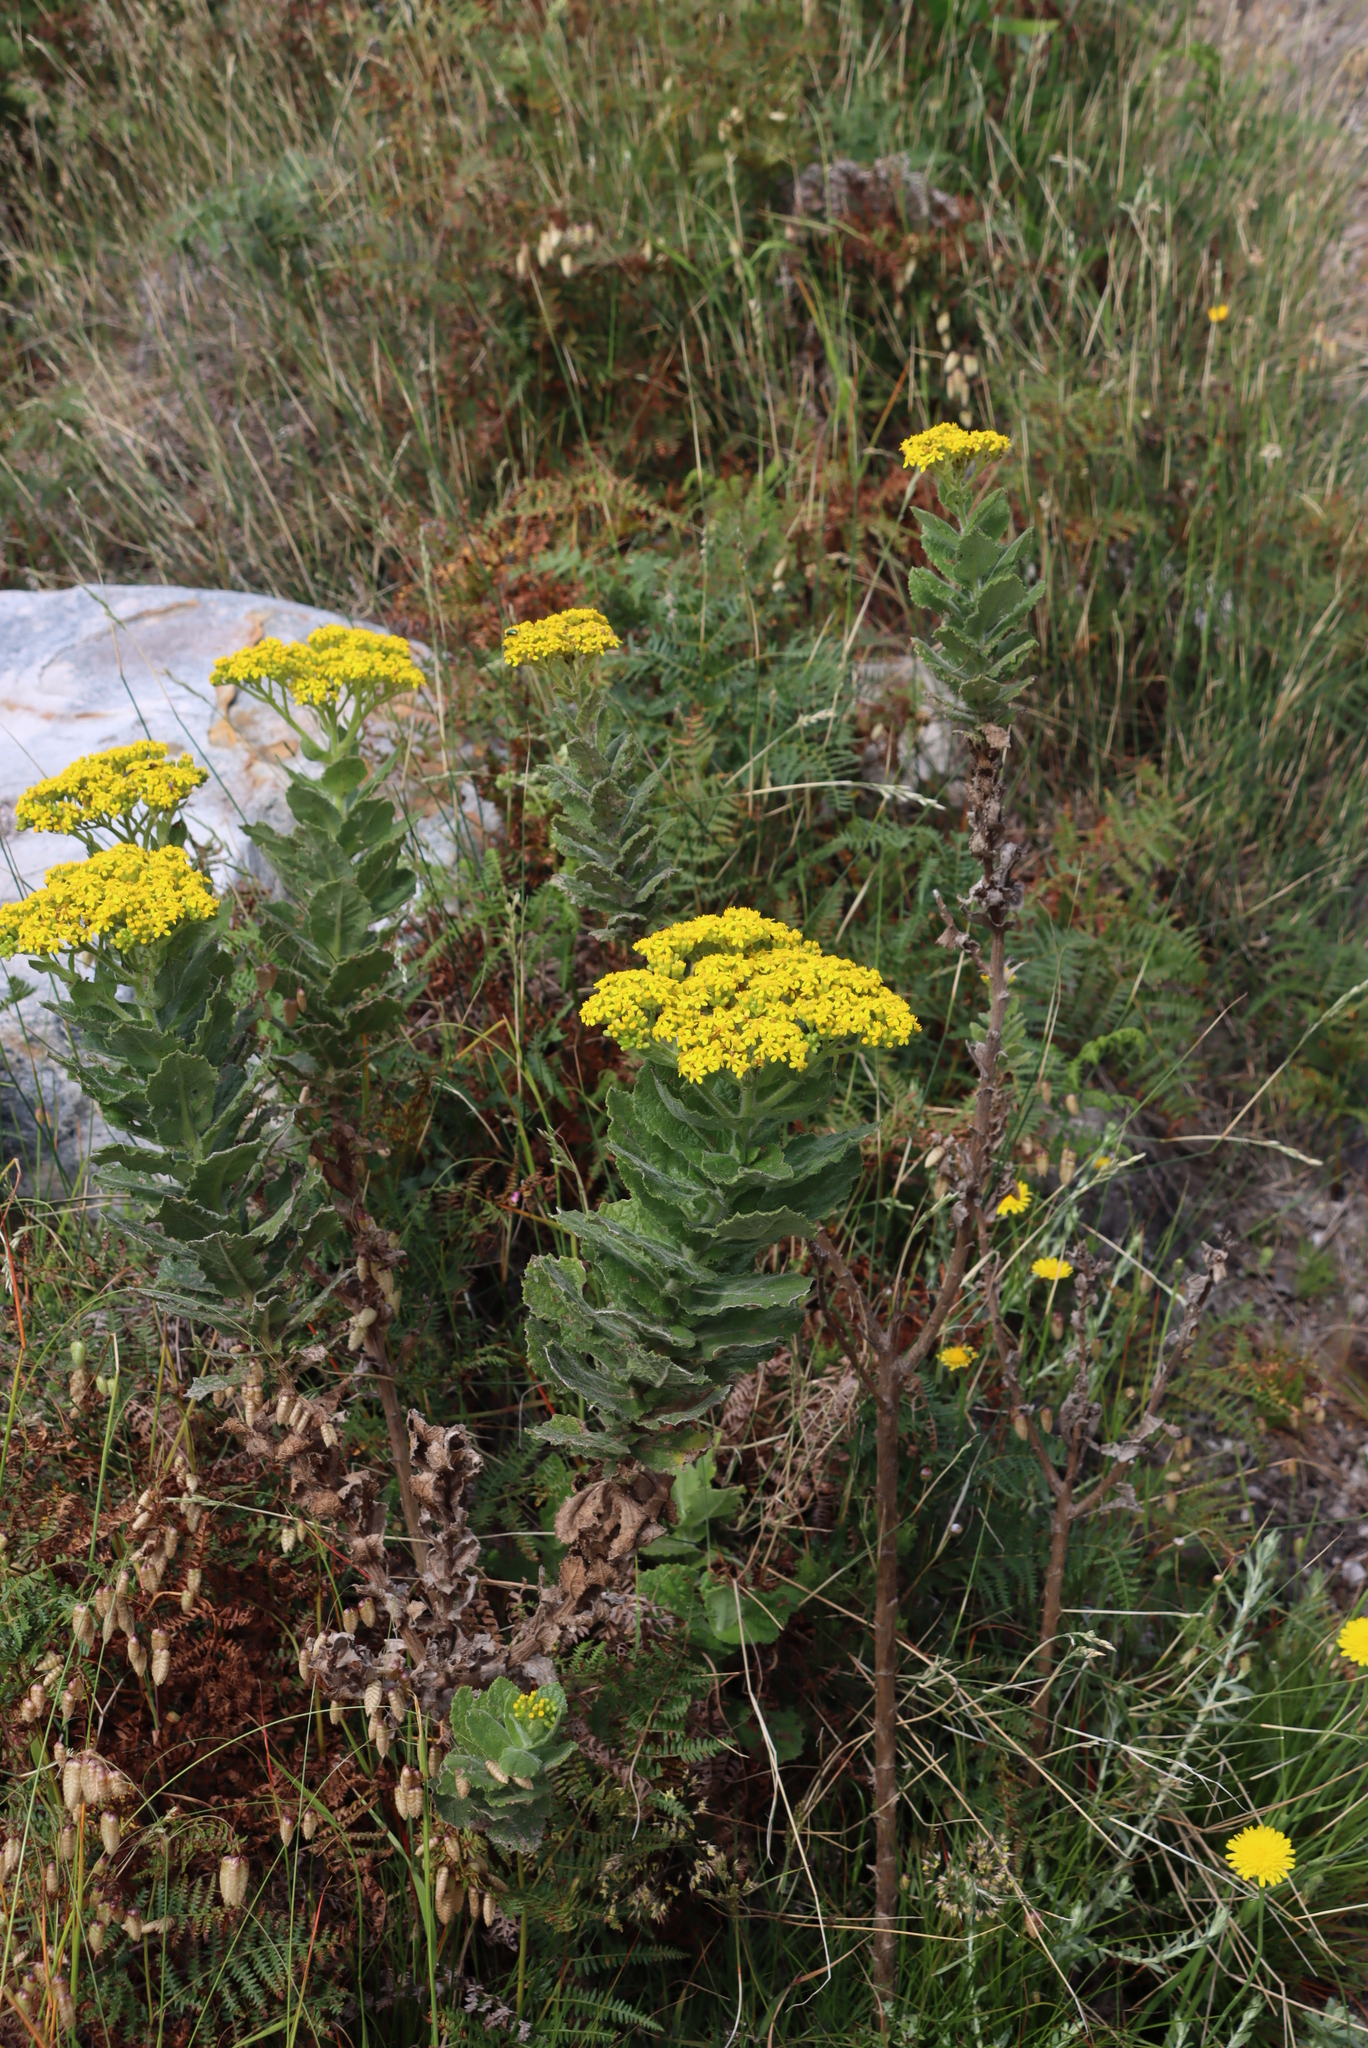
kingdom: Plantae
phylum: Tracheophyta
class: Magnoliopsida
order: Asterales
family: Asteraceae
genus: Senecio
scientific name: Senecio rigidus
